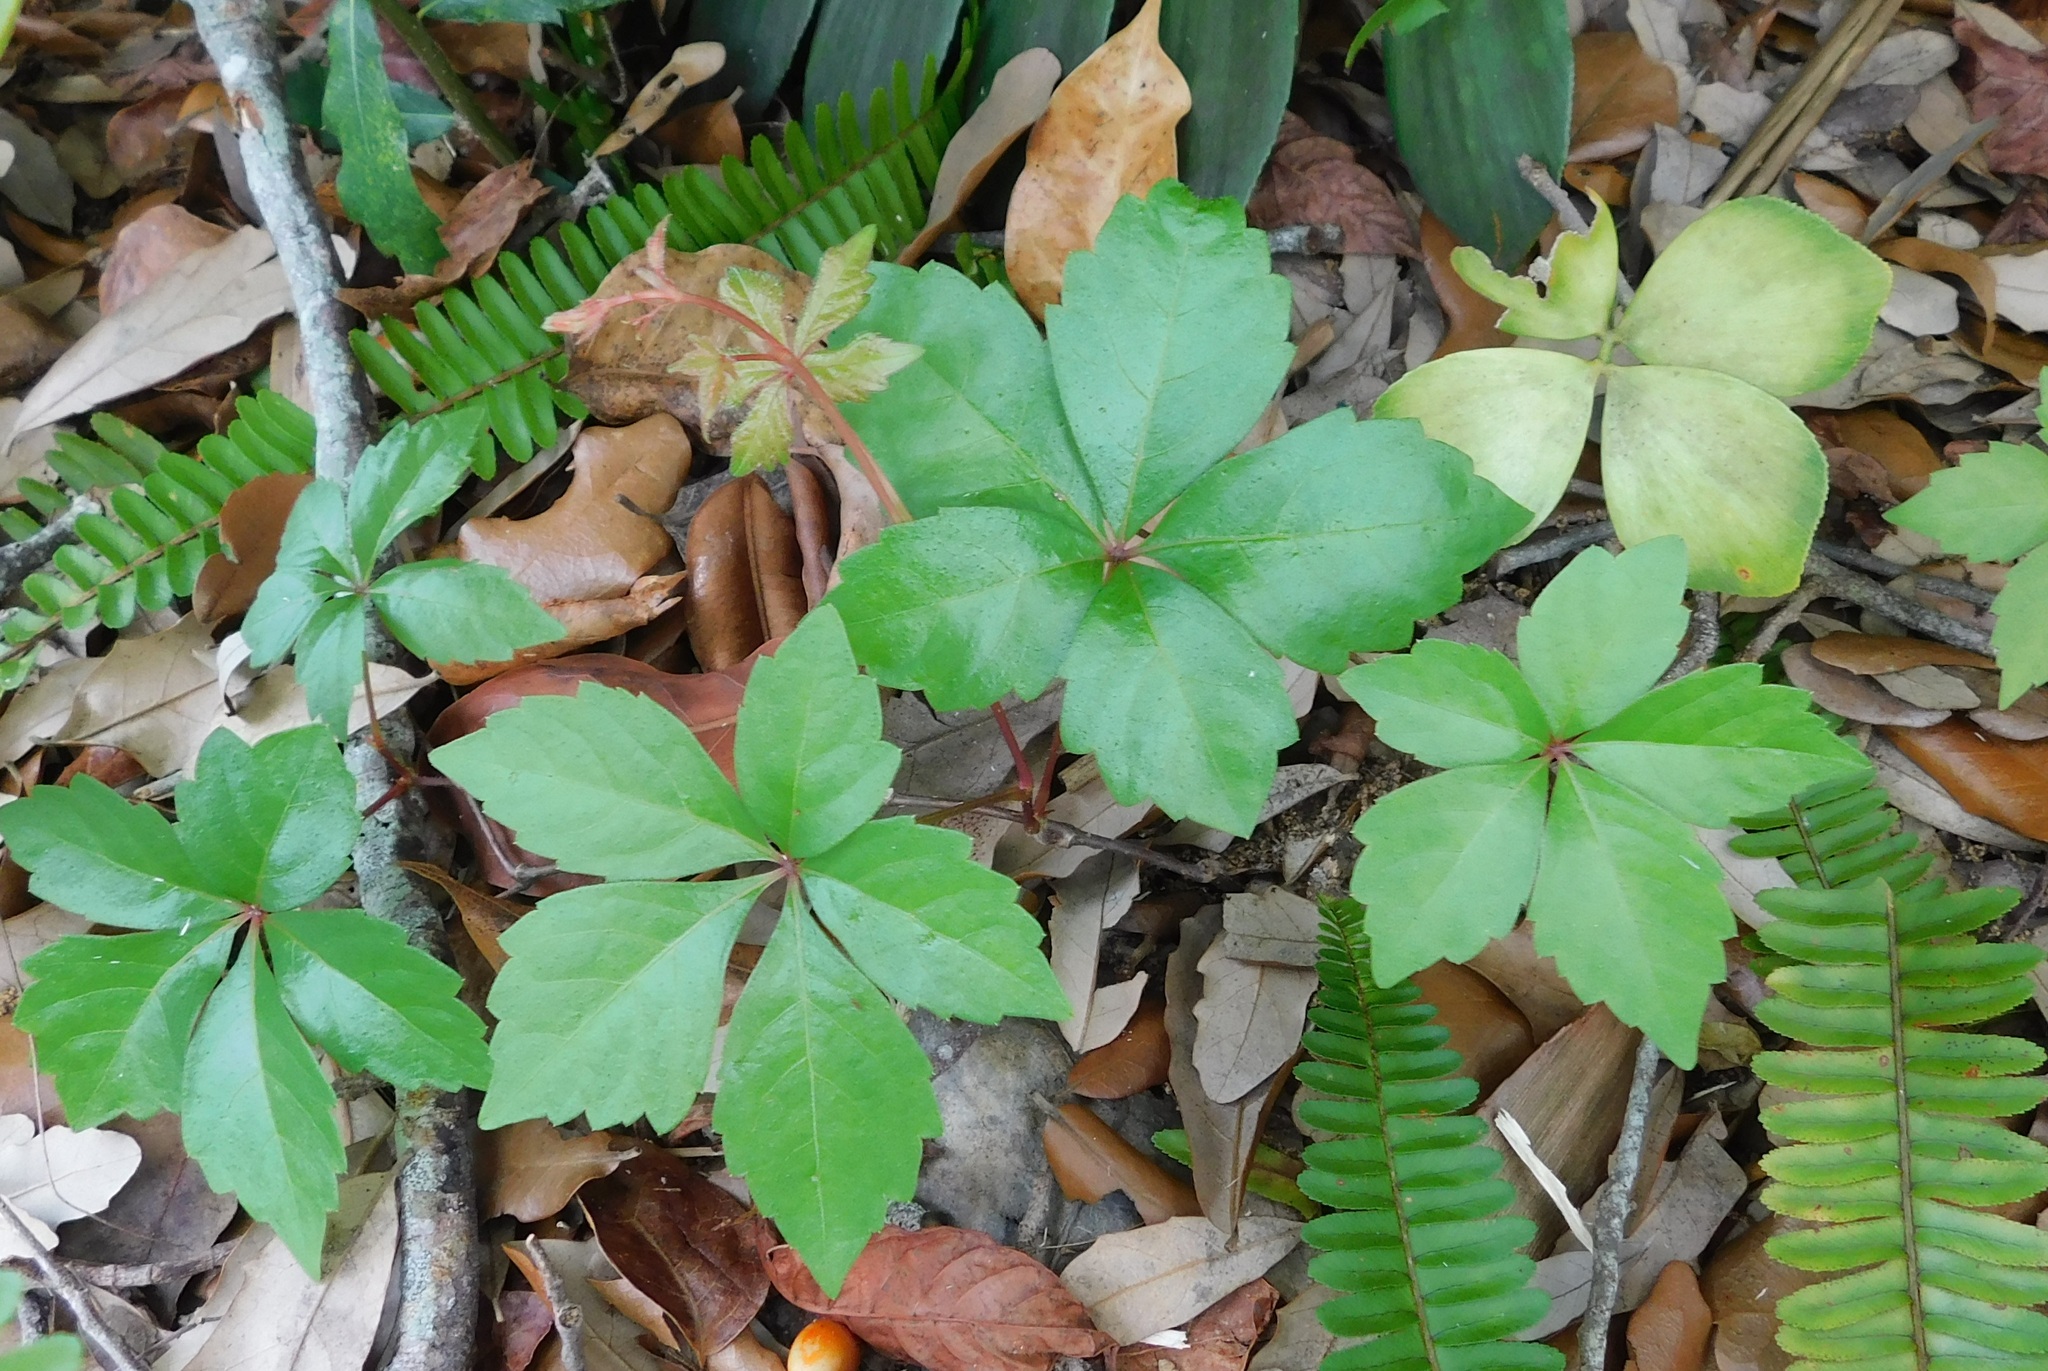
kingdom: Plantae
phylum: Tracheophyta
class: Magnoliopsida
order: Vitales
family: Vitaceae
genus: Parthenocissus
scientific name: Parthenocissus quinquefolia
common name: Virginia-creeper
